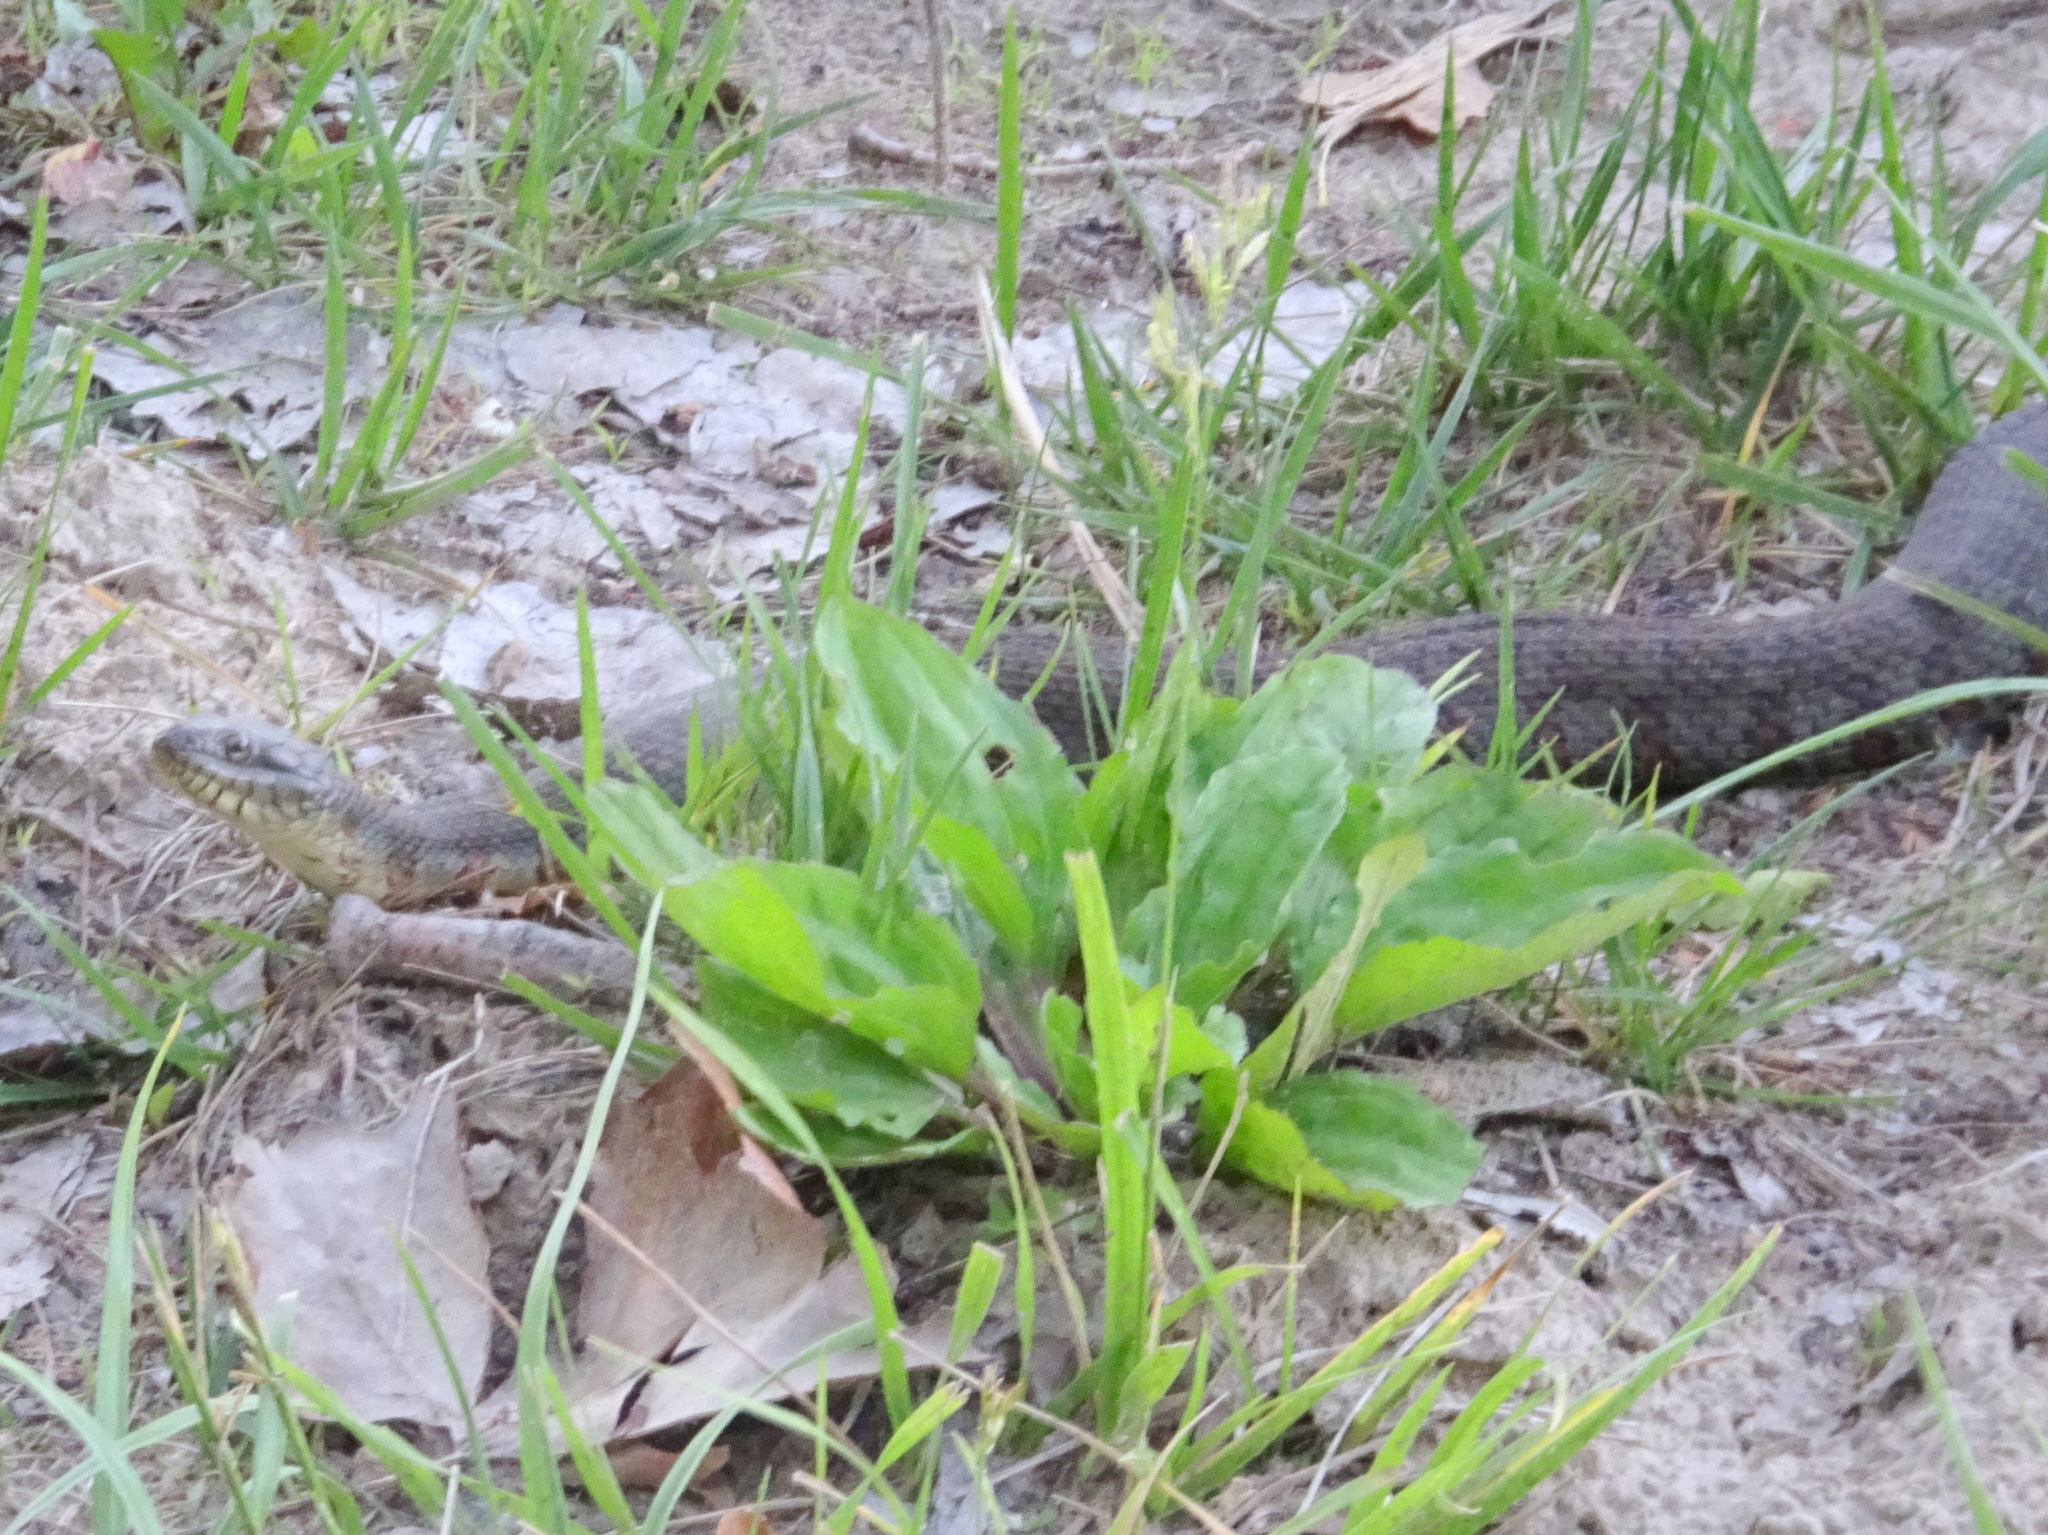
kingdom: Animalia
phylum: Chordata
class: Squamata
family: Colubridae
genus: Nerodia
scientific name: Nerodia sipedon
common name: Northern water snake
